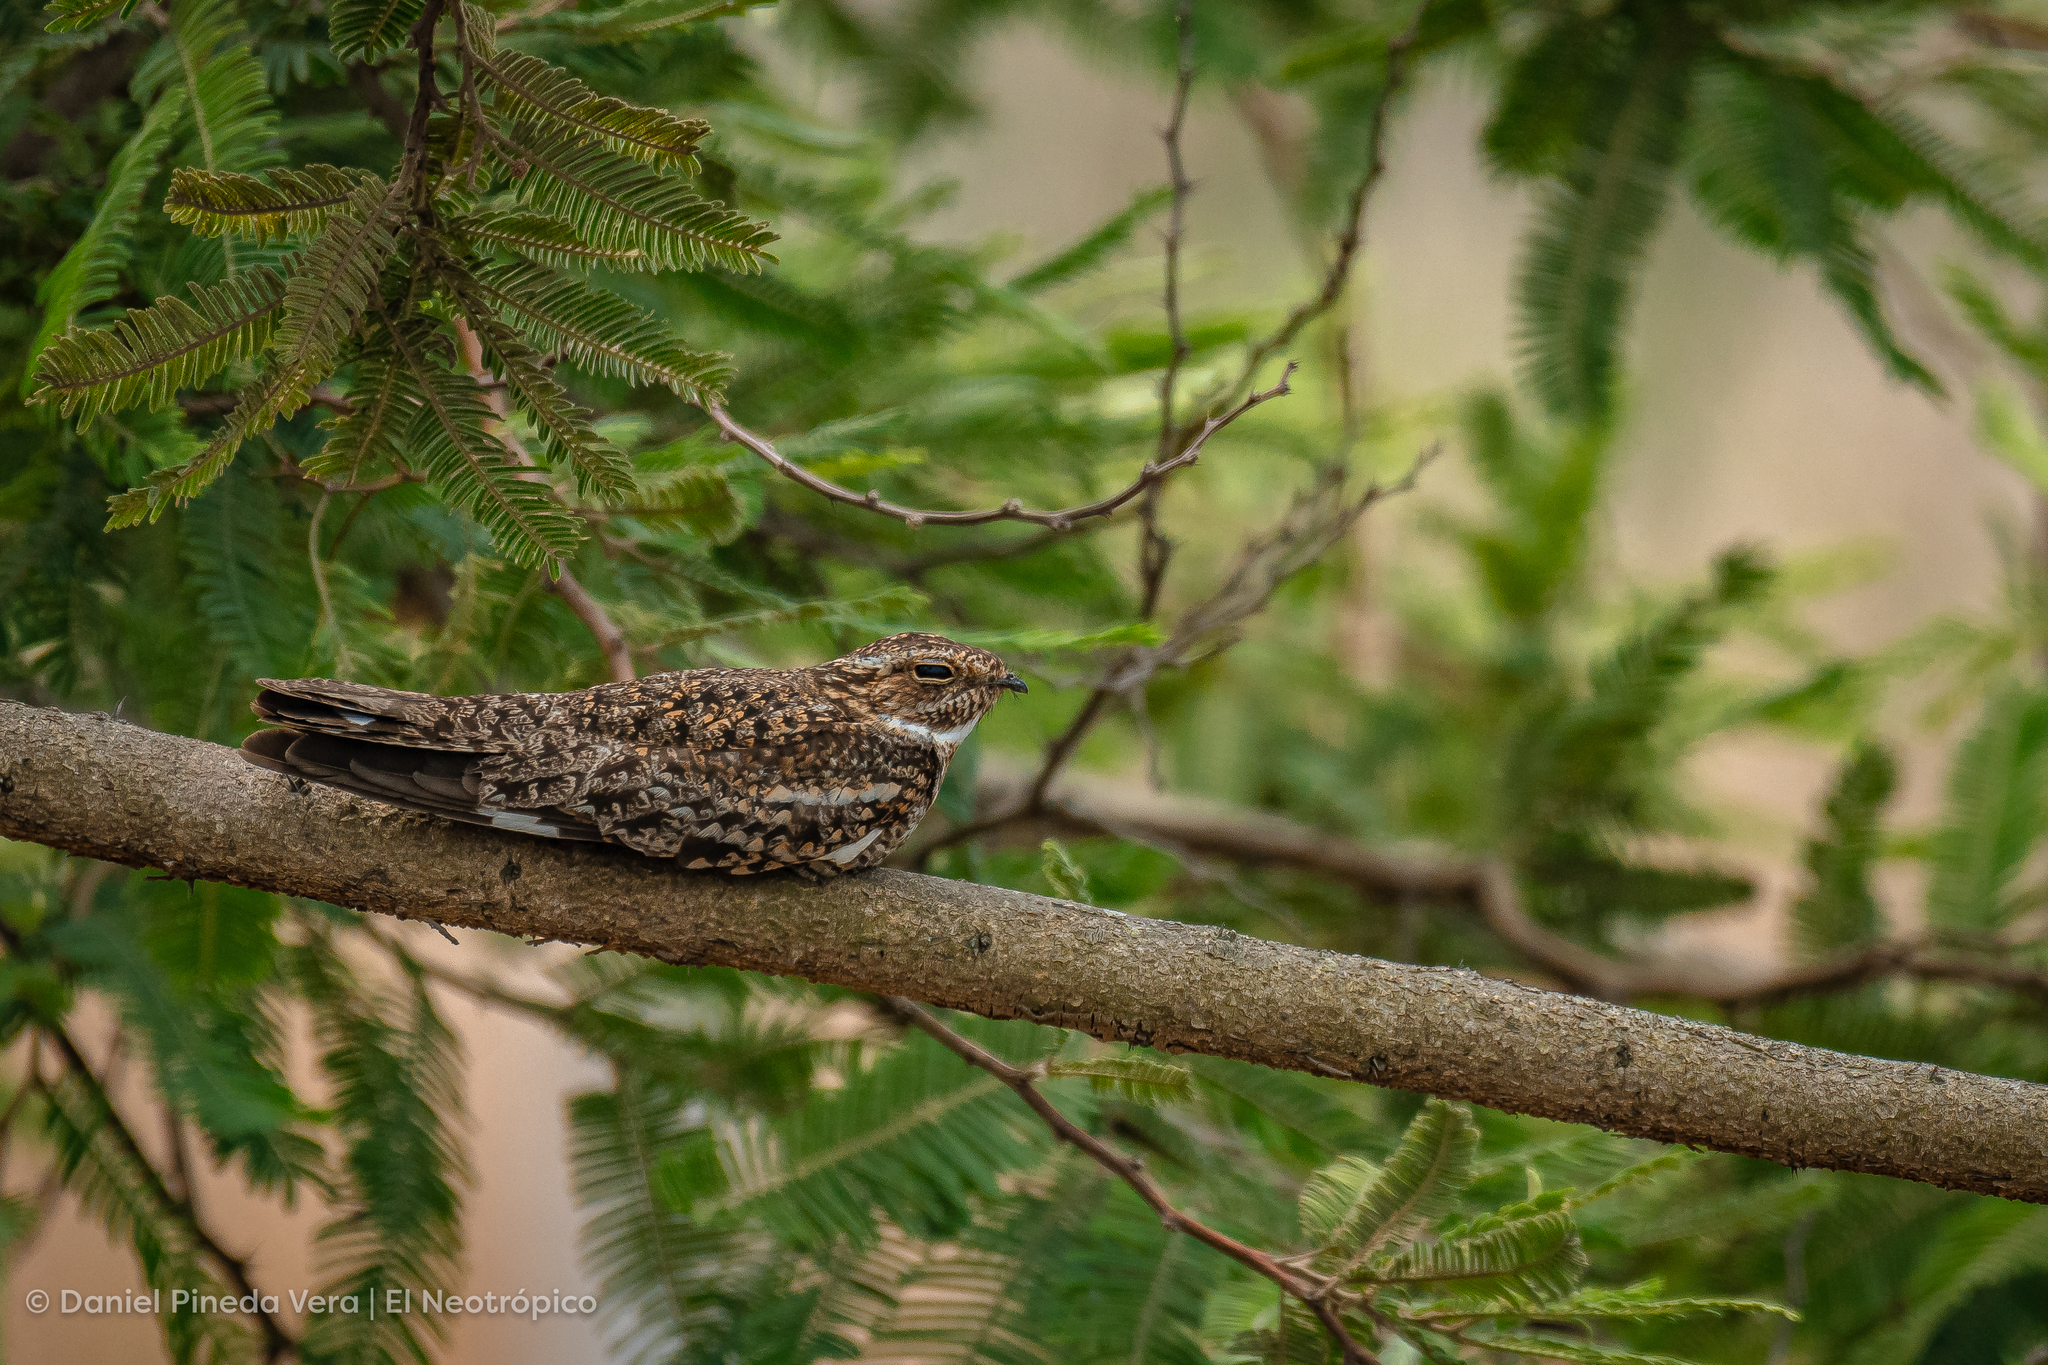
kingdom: Animalia
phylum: Chordata
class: Aves
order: Caprimulgiformes
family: Caprimulgidae
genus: Chordeiles
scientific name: Chordeiles acutipennis
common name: Lesser nighthawk
